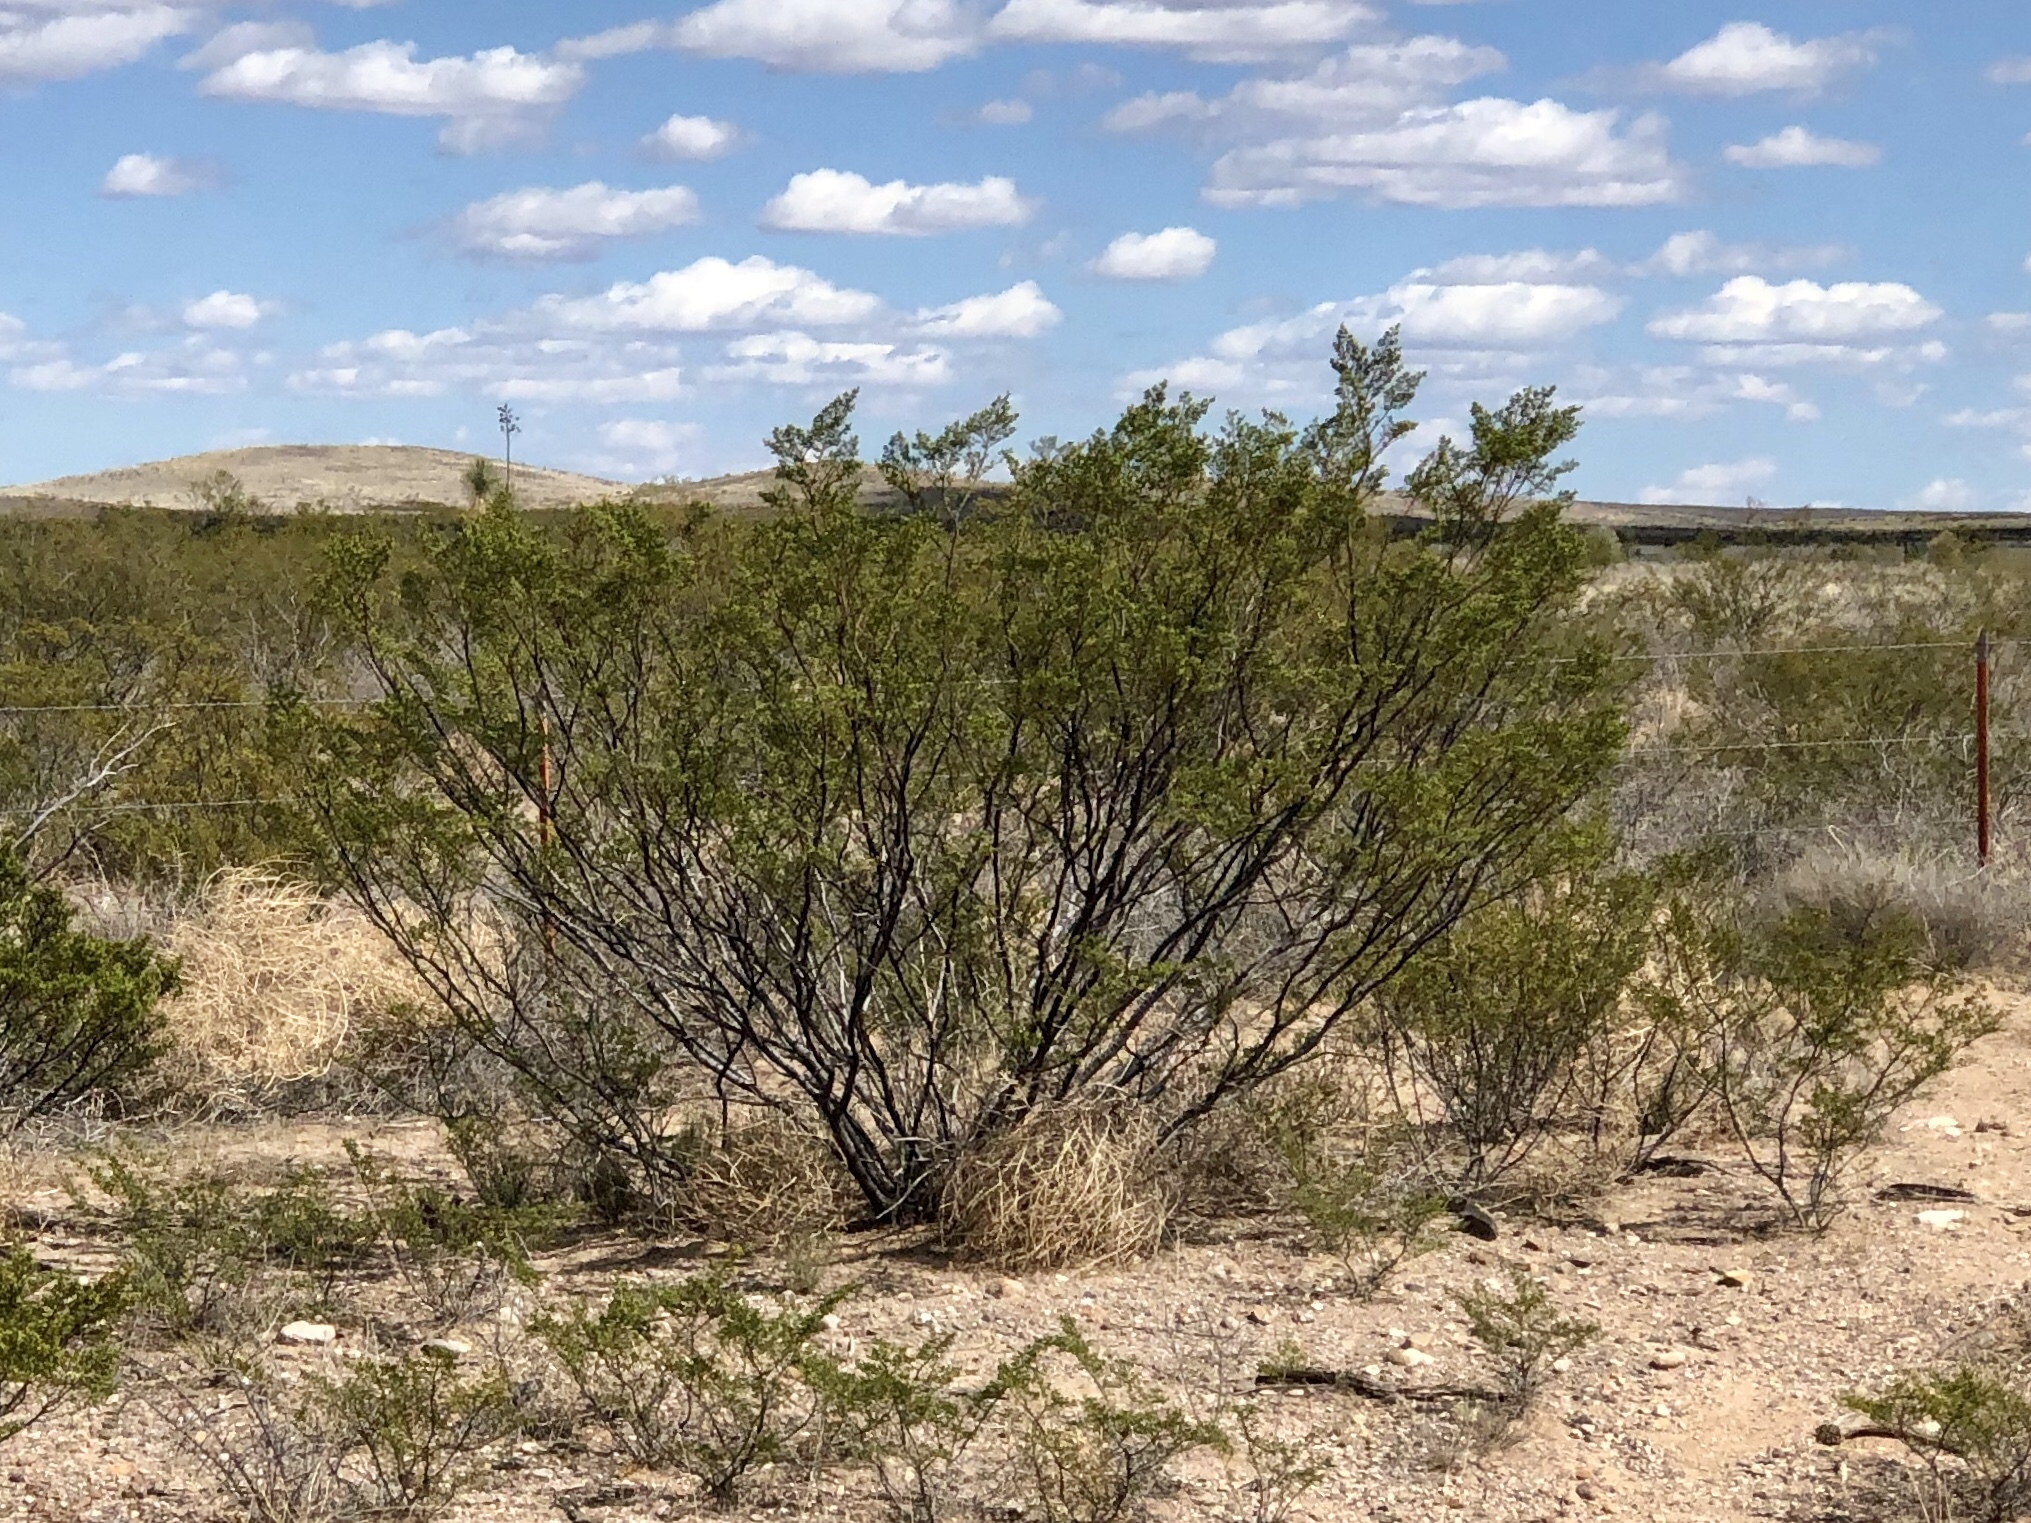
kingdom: Plantae
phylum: Tracheophyta
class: Magnoliopsida
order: Zygophyllales
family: Zygophyllaceae
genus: Larrea
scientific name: Larrea tridentata
